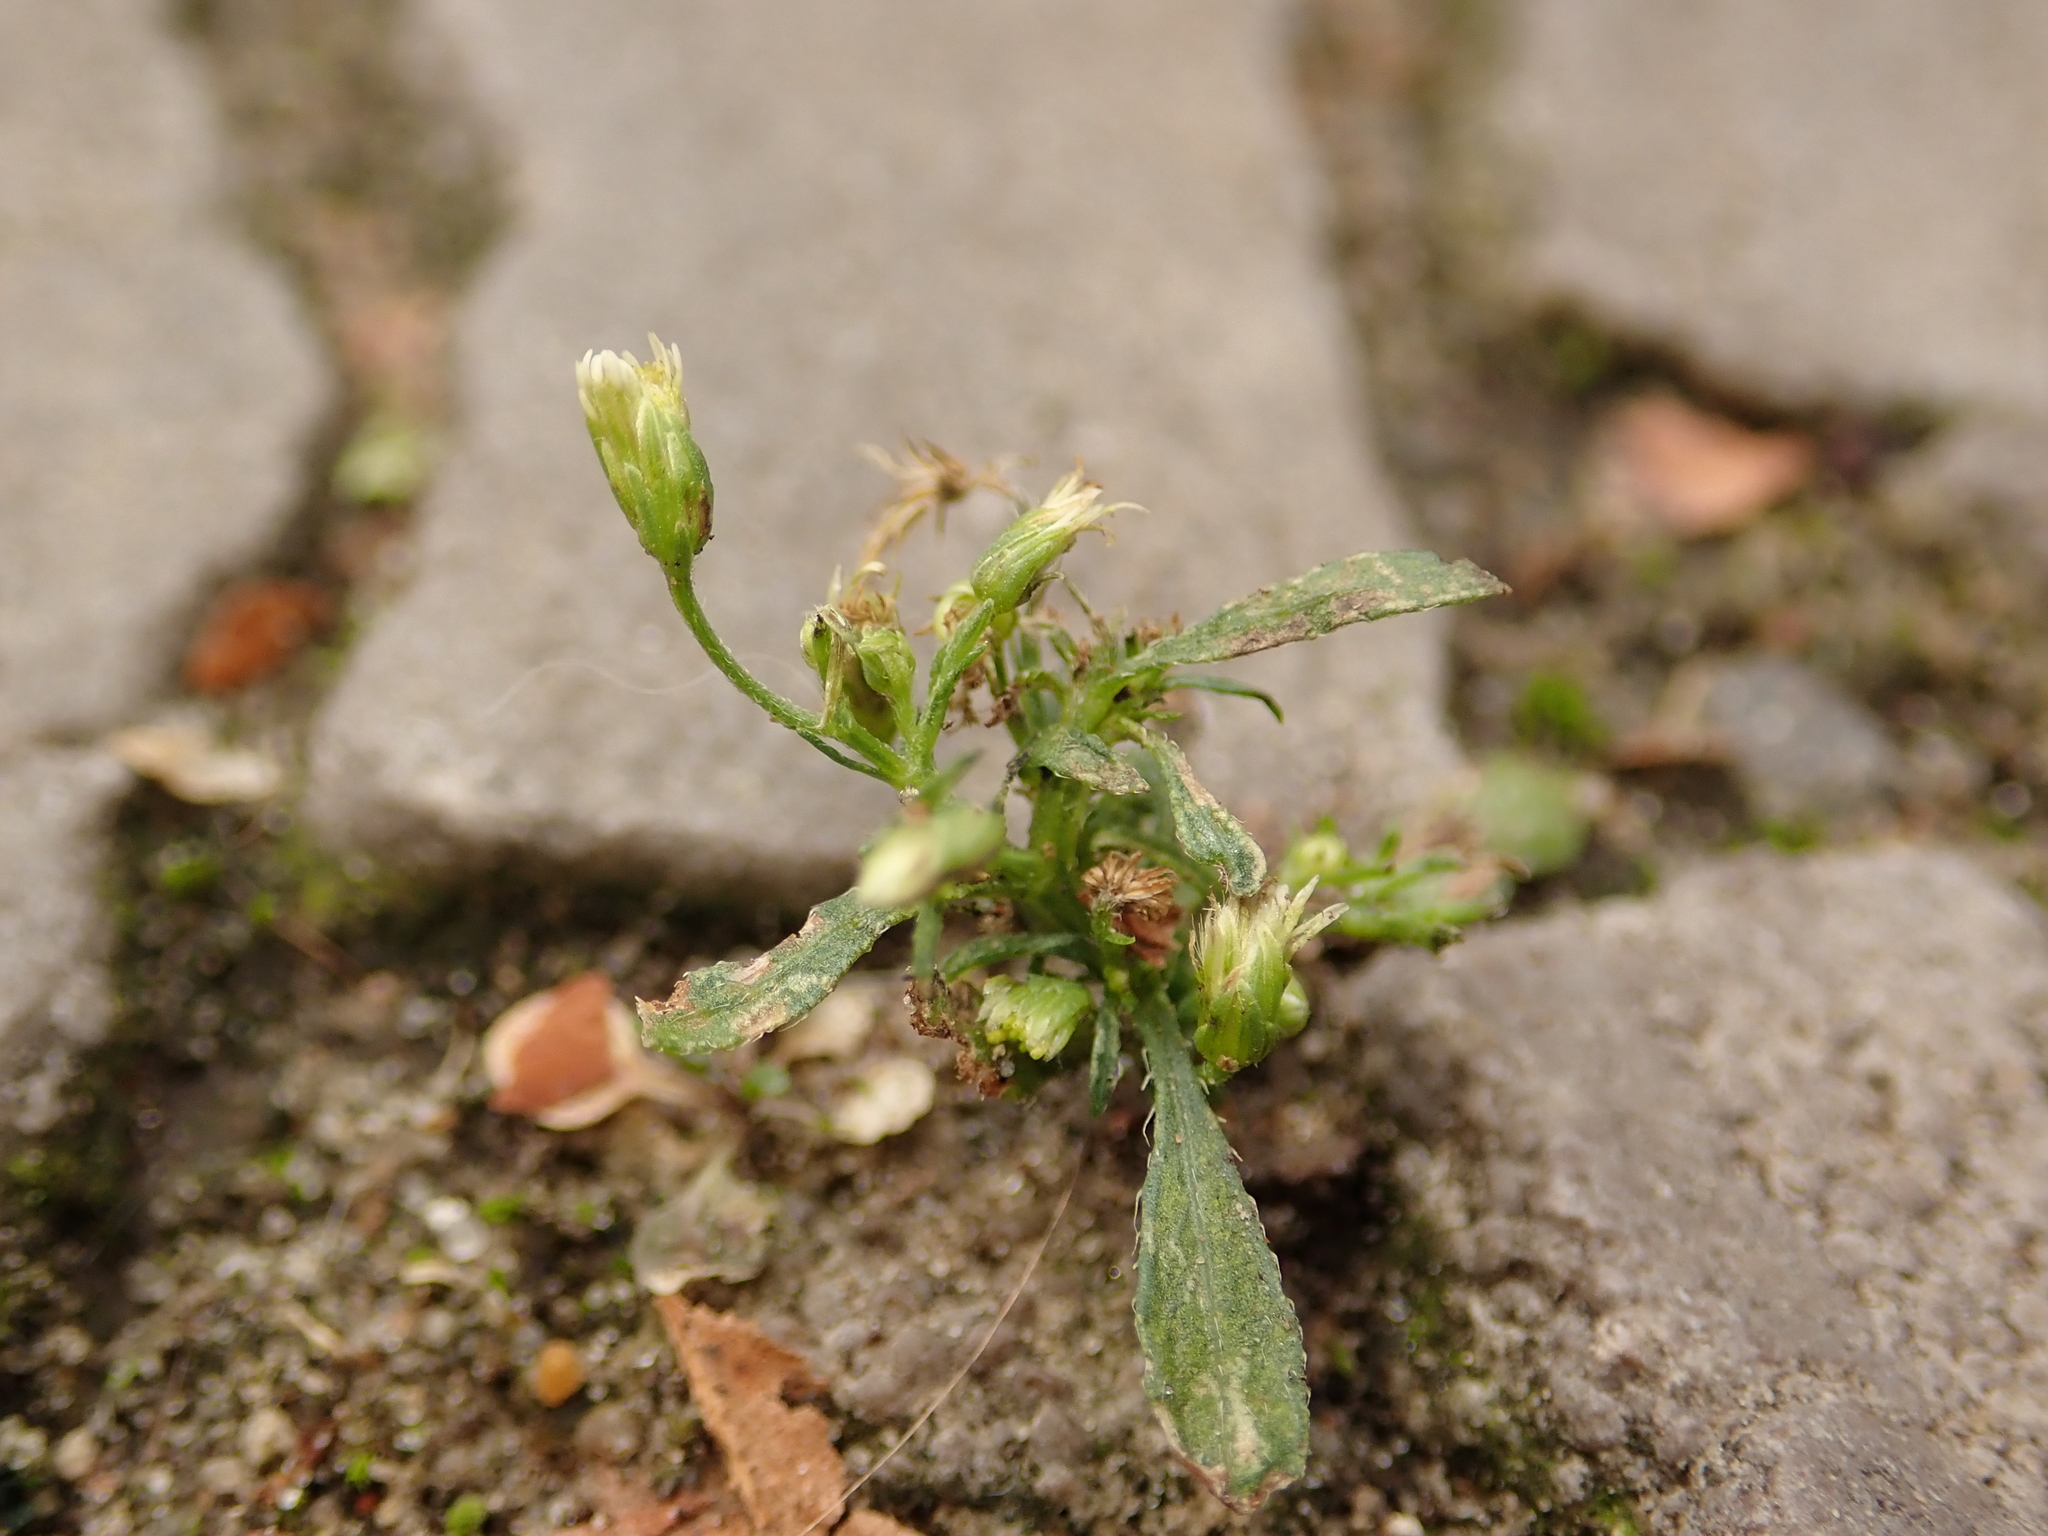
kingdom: Plantae
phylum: Tracheophyta
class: Magnoliopsida
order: Asterales
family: Asteraceae
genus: Erigeron
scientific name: Erigeron canadensis
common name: Canadian fleabane
